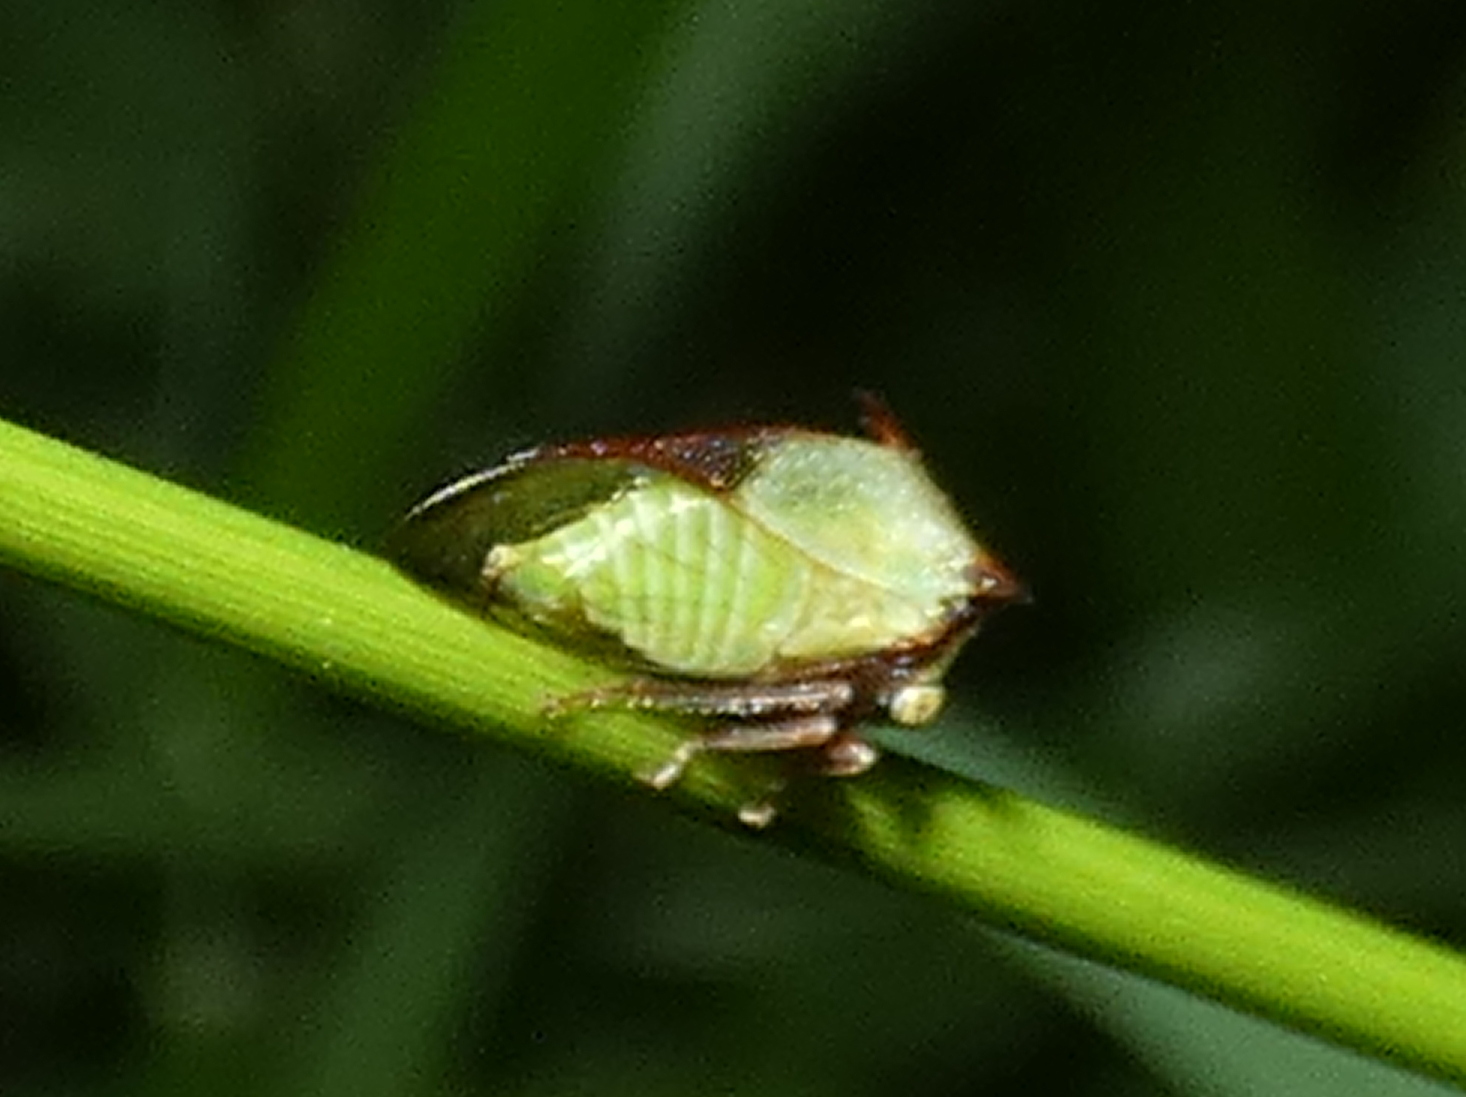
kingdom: Animalia
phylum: Arthropoda
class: Insecta
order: Hemiptera
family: Membracidae
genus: Ceresa
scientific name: Ceresa ustulata
